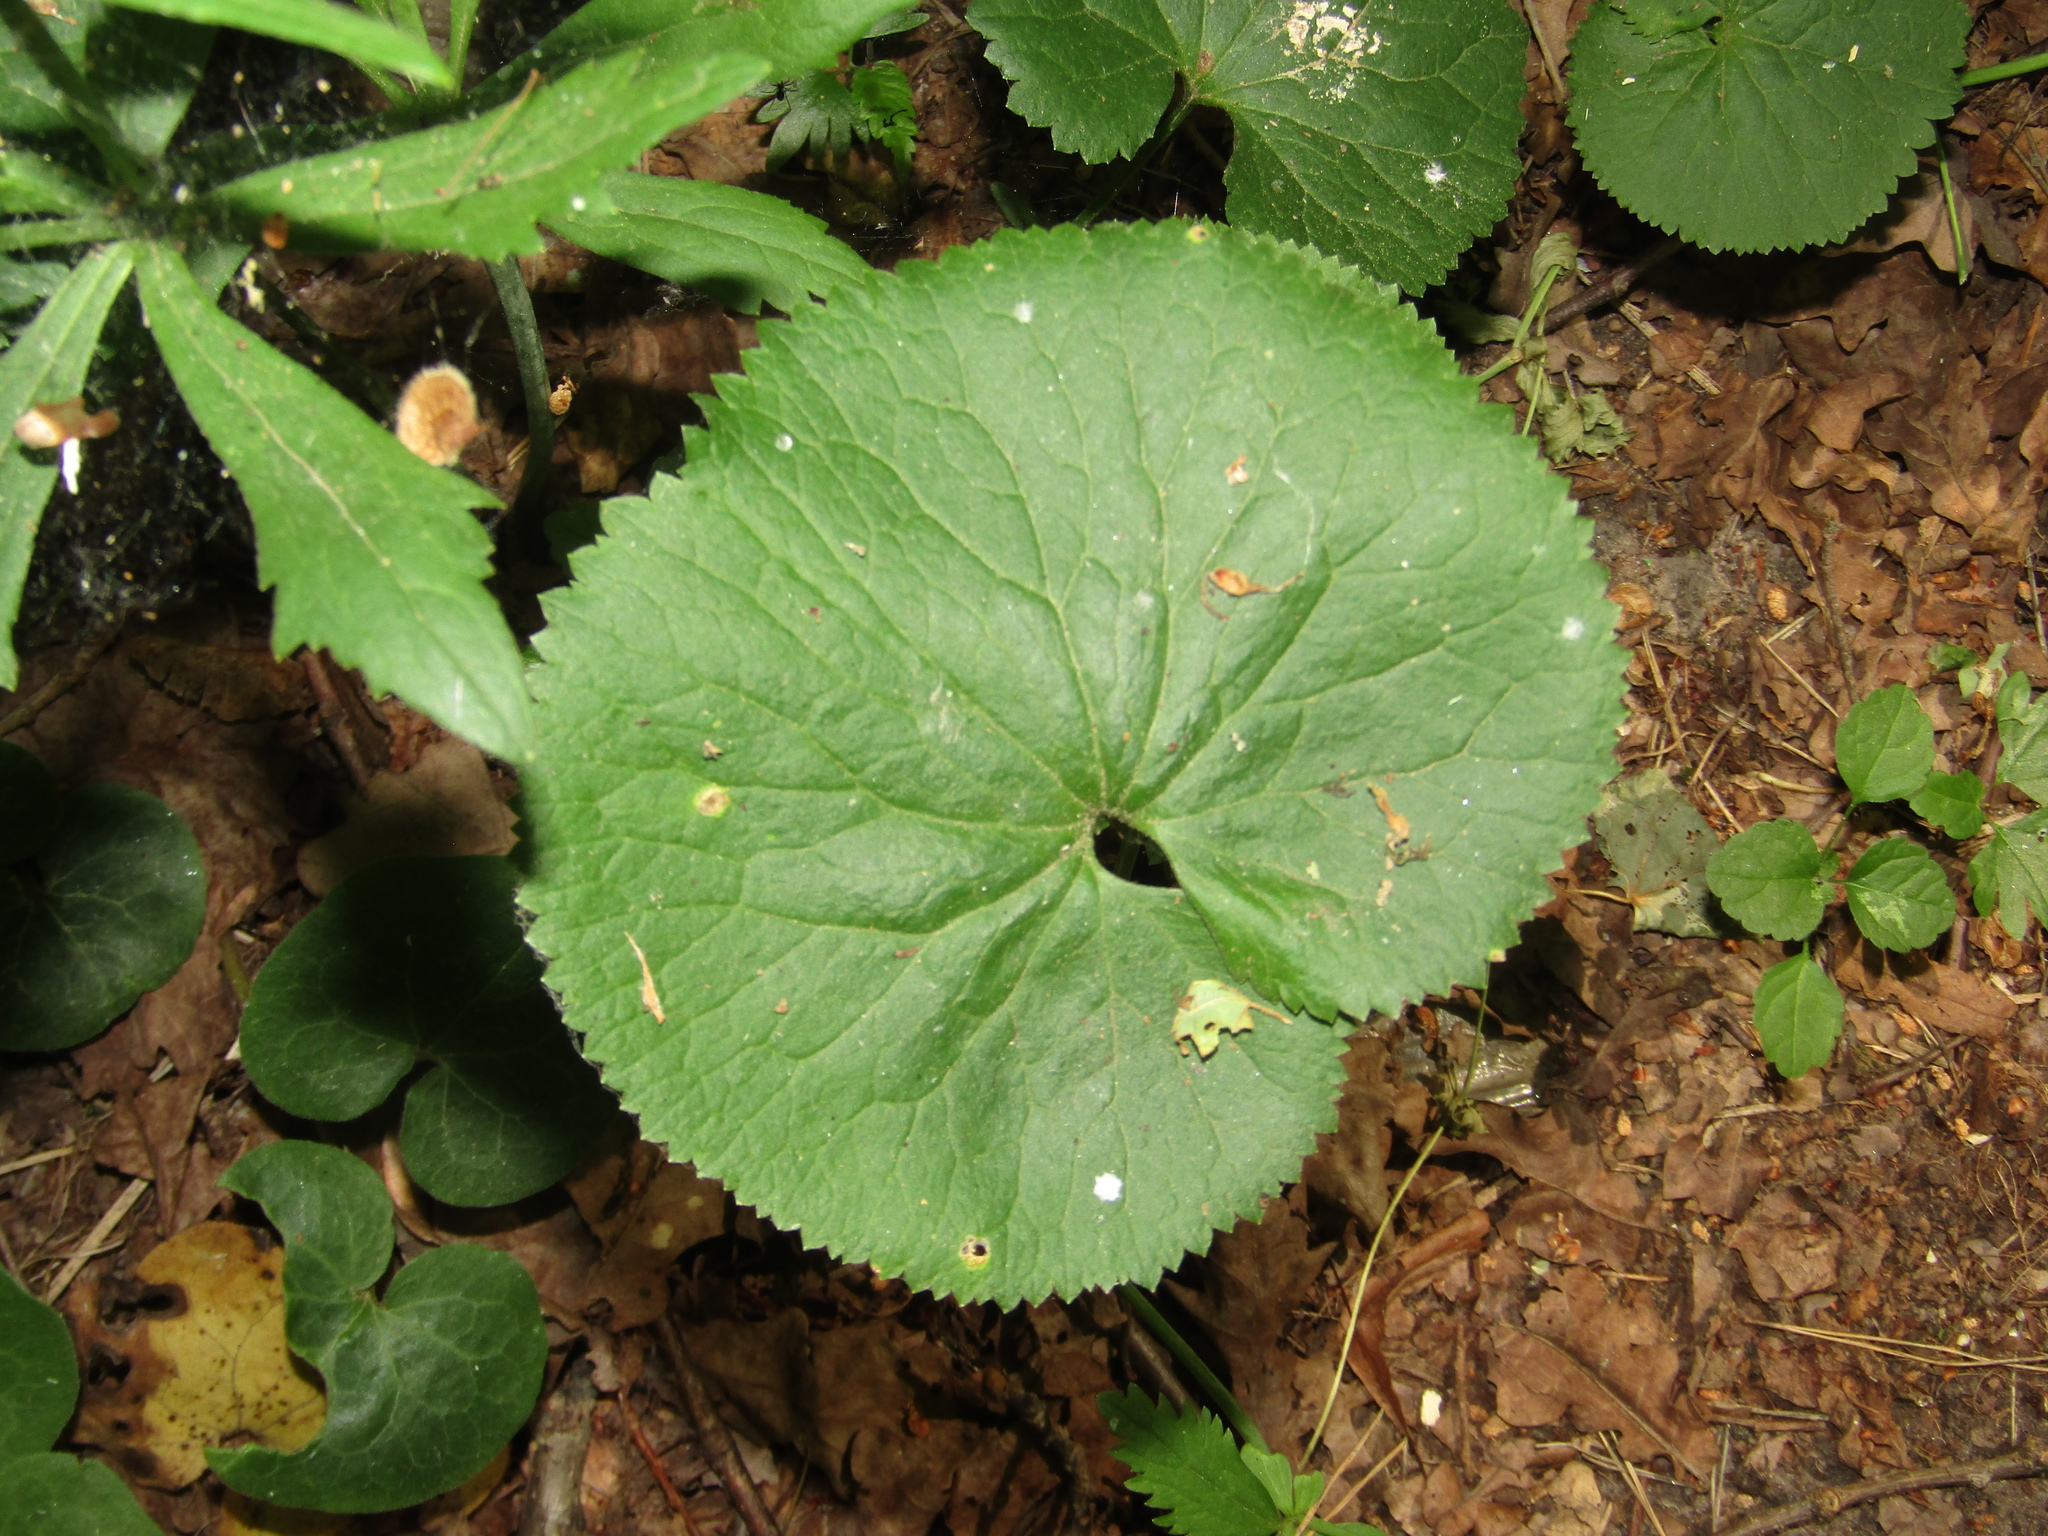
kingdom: Plantae
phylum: Tracheophyta
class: Magnoliopsida
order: Ranunculales
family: Ranunculaceae
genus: Ranunculus
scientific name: Ranunculus cassubicus
